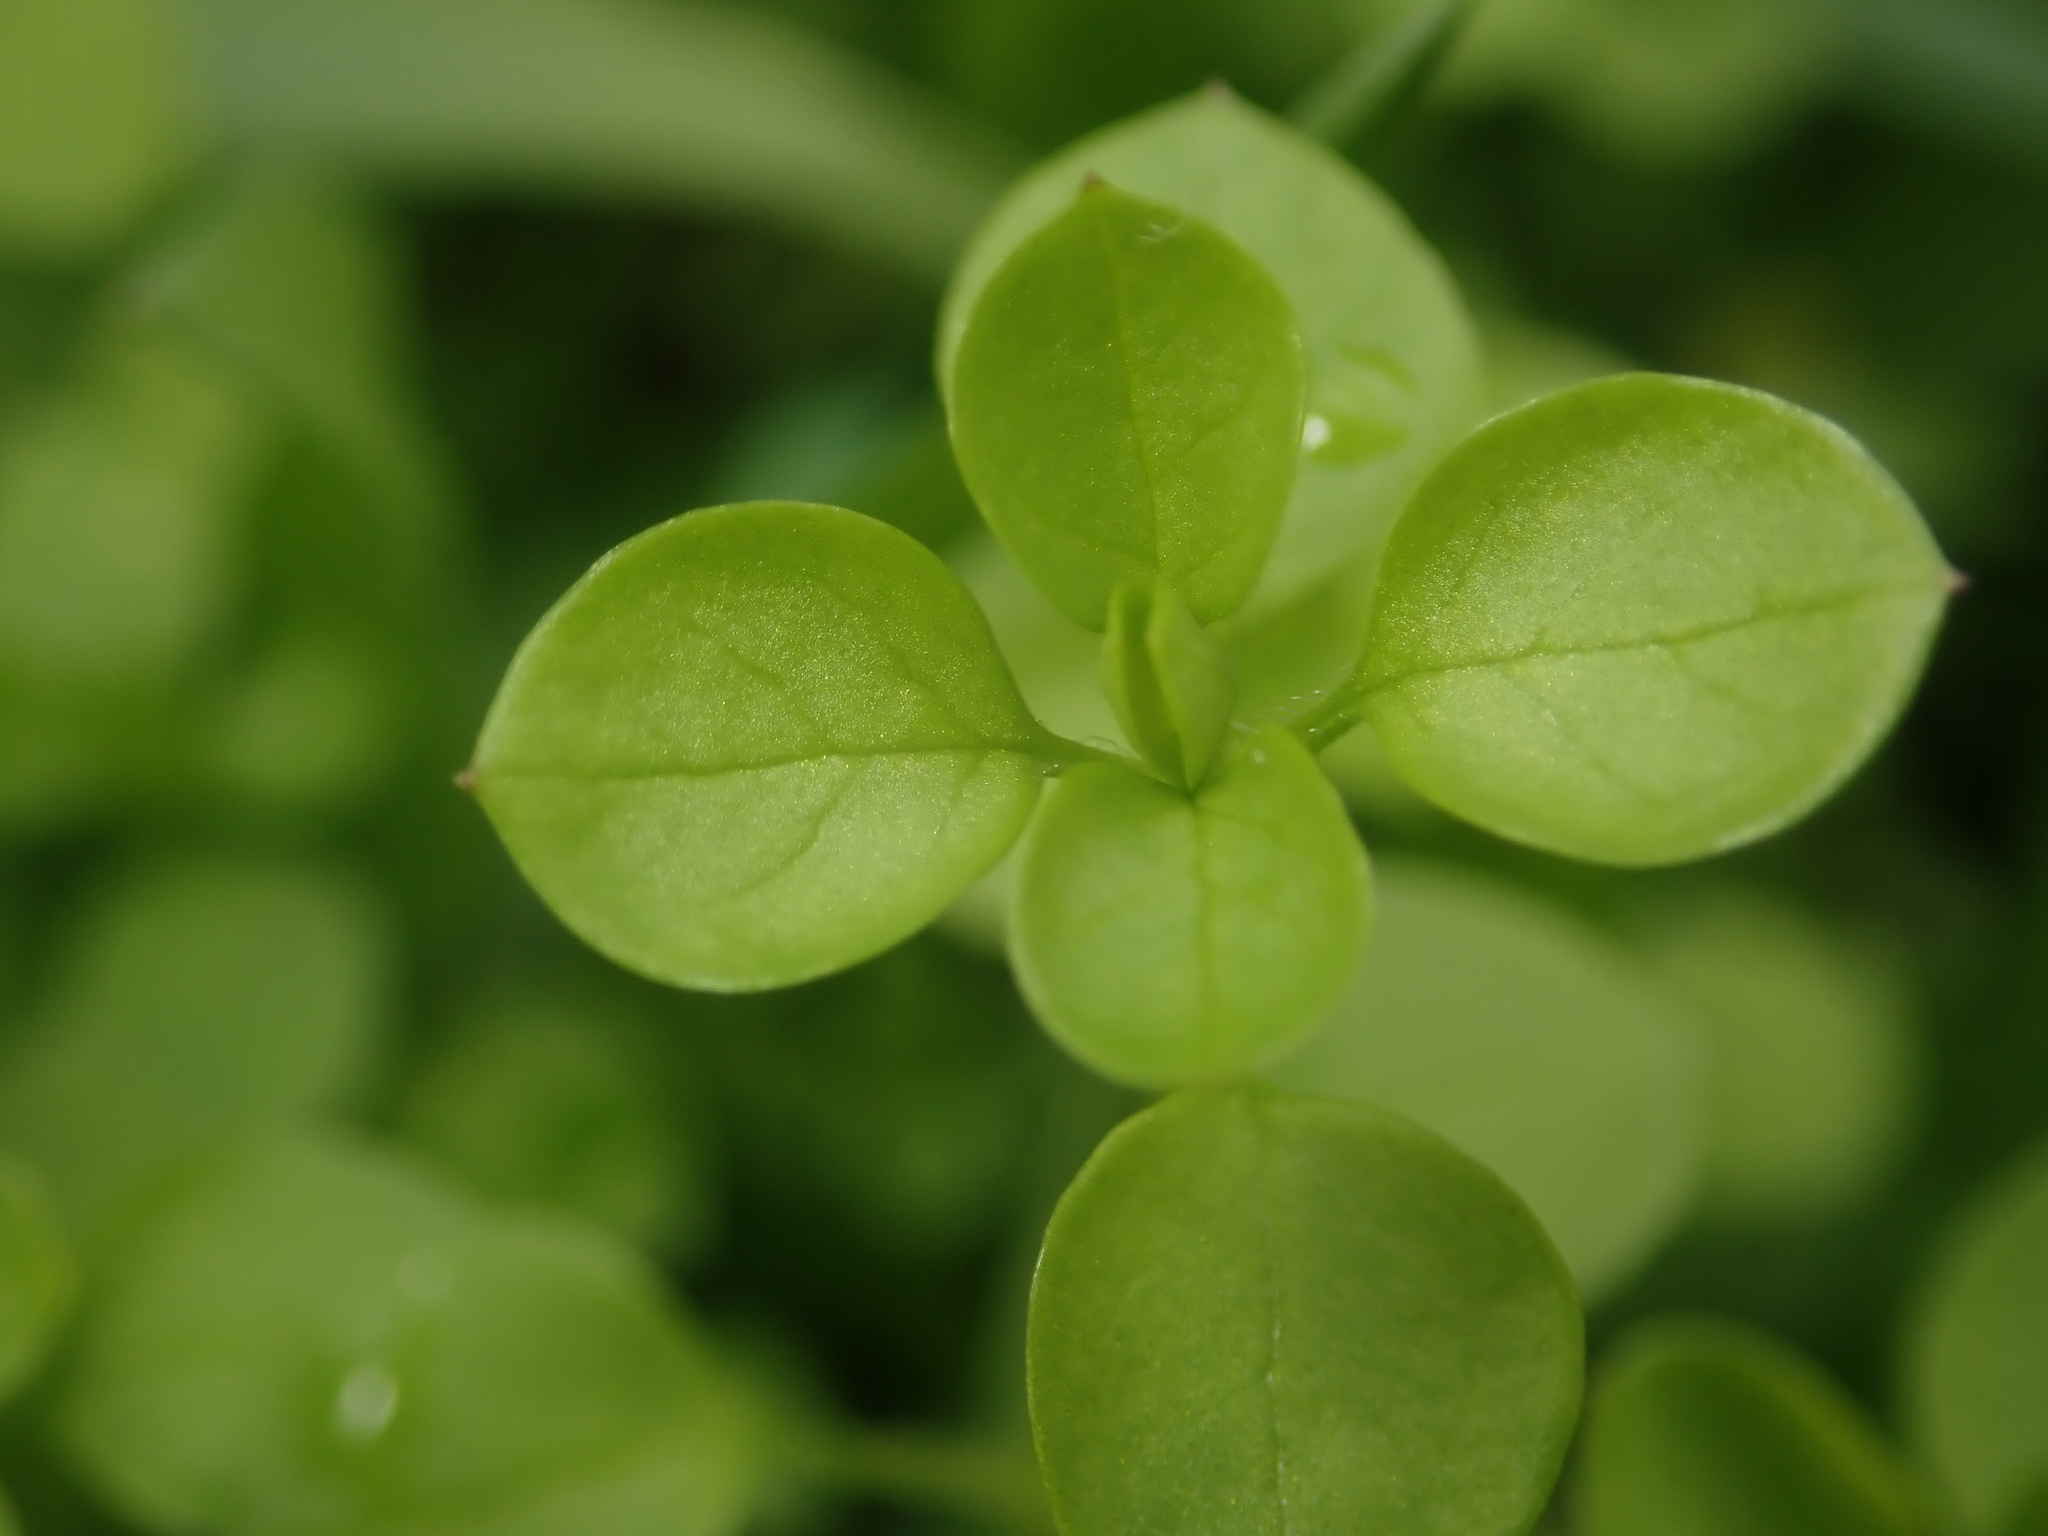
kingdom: Plantae
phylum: Tracheophyta
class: Magnoliopsida
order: Caryophyllales
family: Caryophyllaceae
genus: Stellaria
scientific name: Stellaria media
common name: Common chickweed
